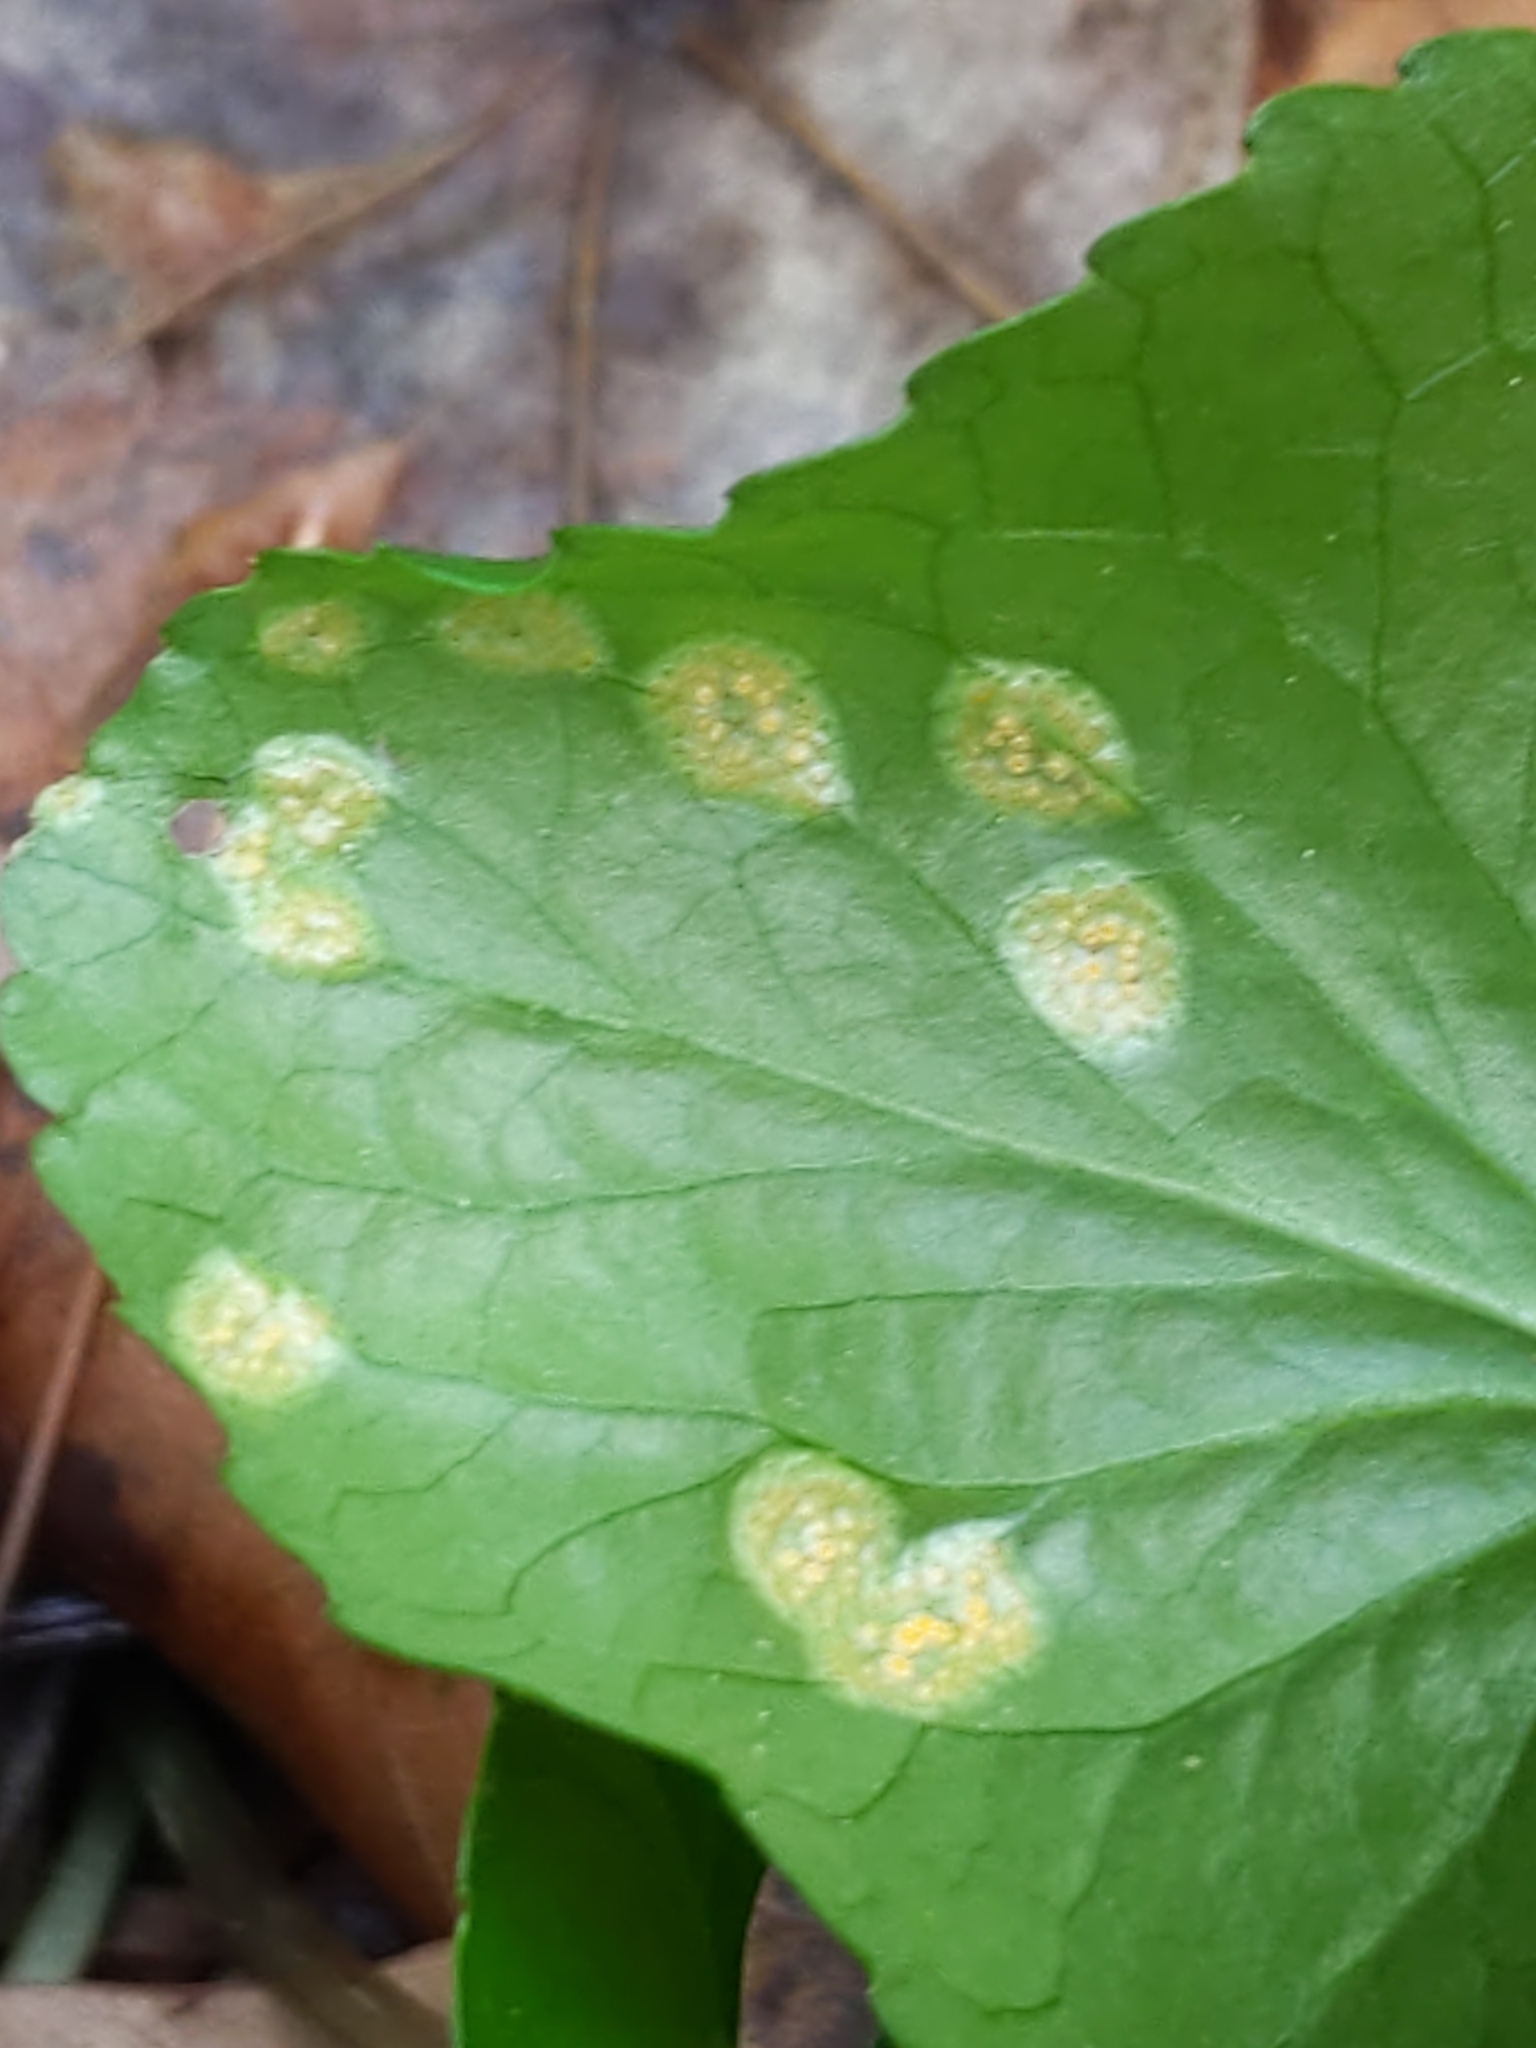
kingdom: Fungi
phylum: Basidiomycota
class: Pucciniomycetes
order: Pucciniales
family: Pucciniaceae
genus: Puccinia
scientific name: Puccinia violae
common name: Violet rust
